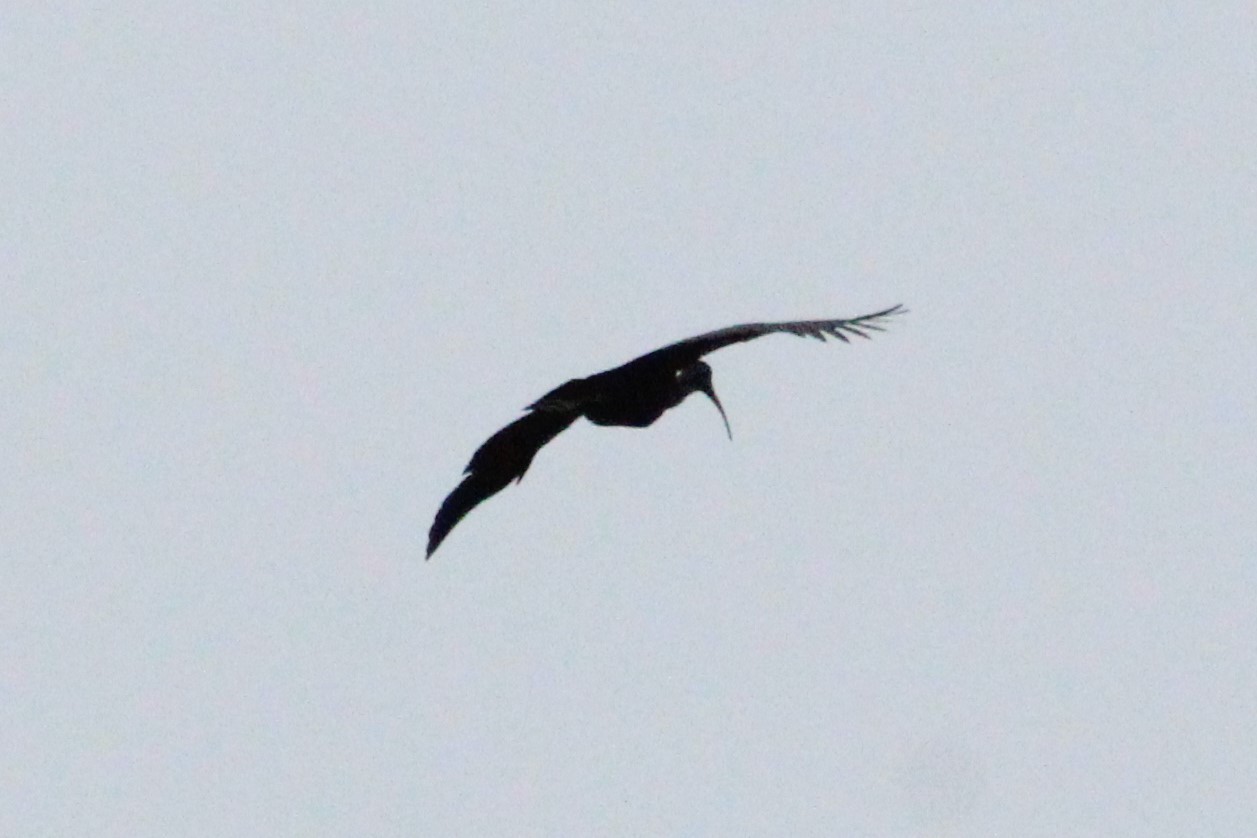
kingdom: Animalia
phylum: Chordata
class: Aves
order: Pelecaniformes
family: Threskiornithidae
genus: Mesembrinibis
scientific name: Mesembrinibis cayennensis
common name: Green ibis
